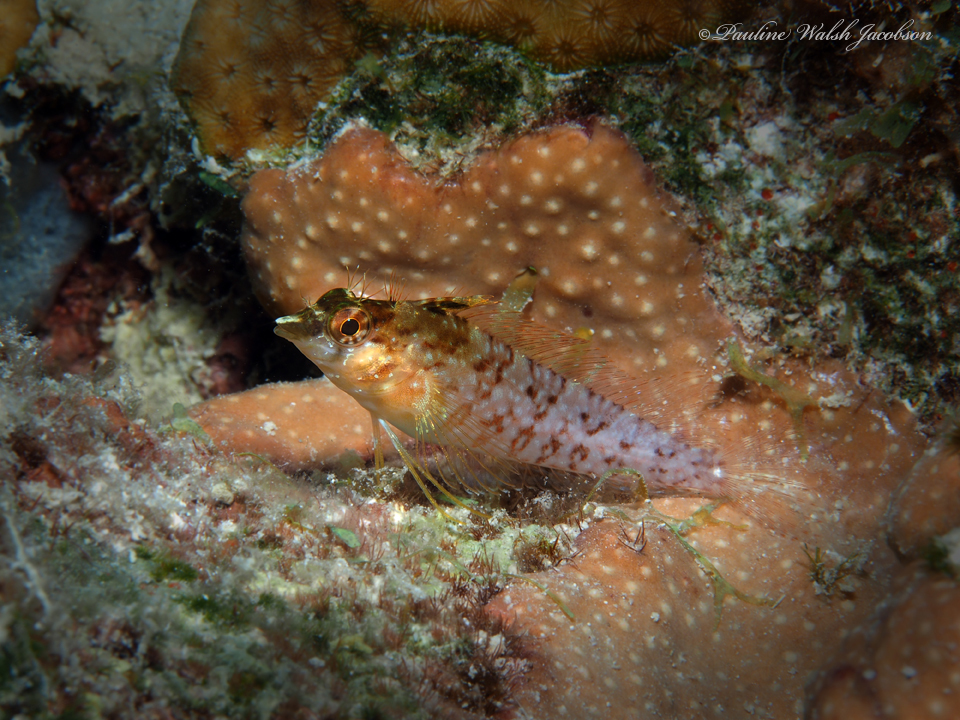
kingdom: Animalia
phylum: Chordata
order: Perciformes
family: Labrisomidae
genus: Malacoctenus
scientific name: Malacoctenus boehlkei
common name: Diamond blenny
